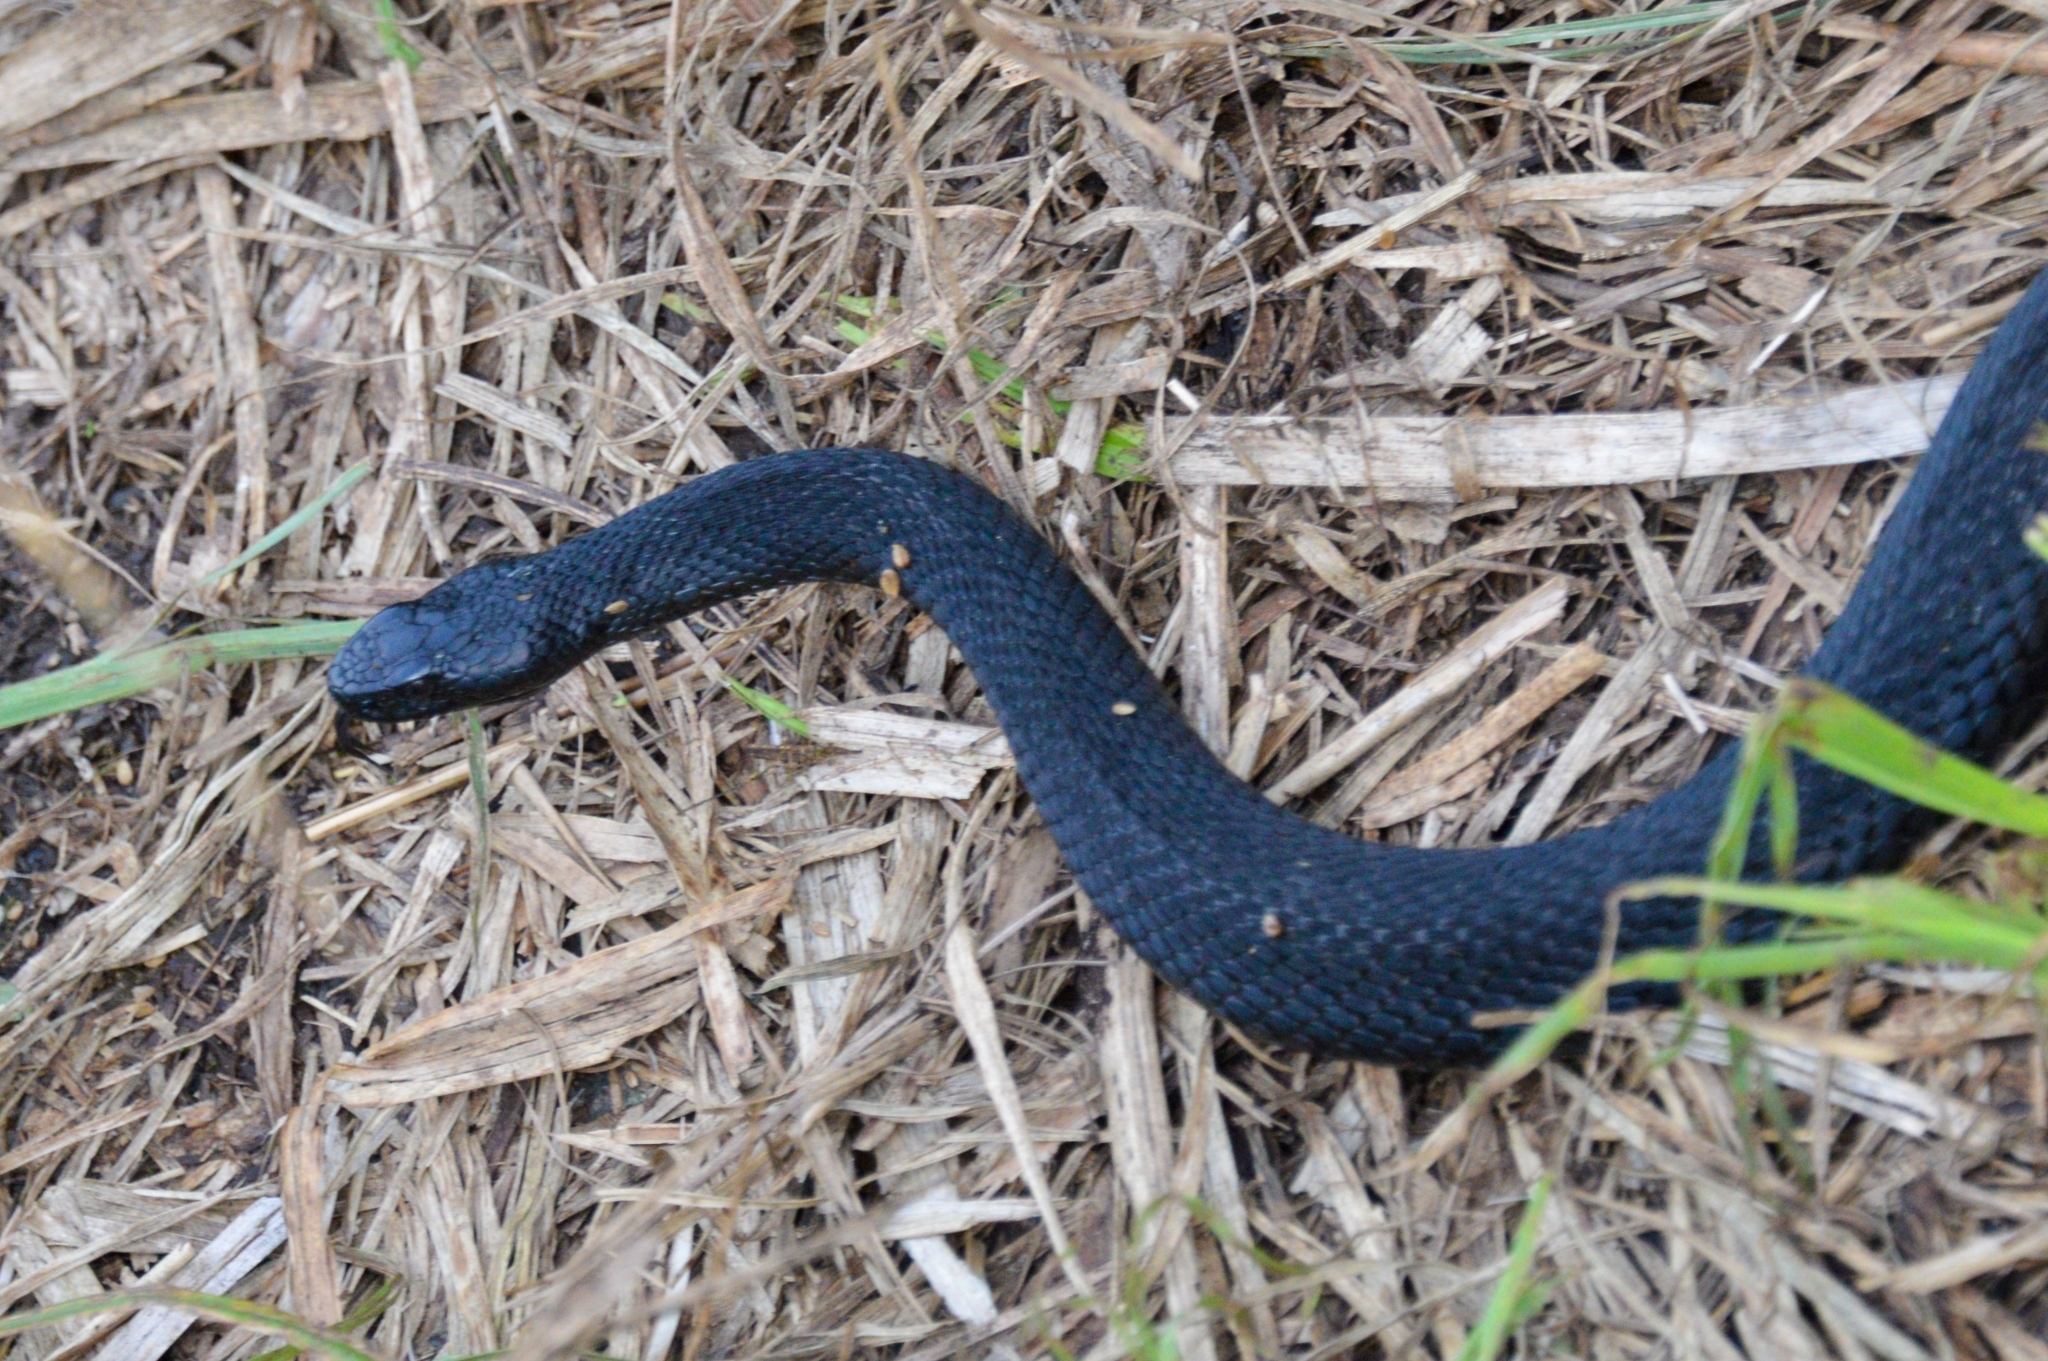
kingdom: Animalia
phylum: Chordata
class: Squamata
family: Viperidae
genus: Vipera
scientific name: Vipera berus
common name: Adder
